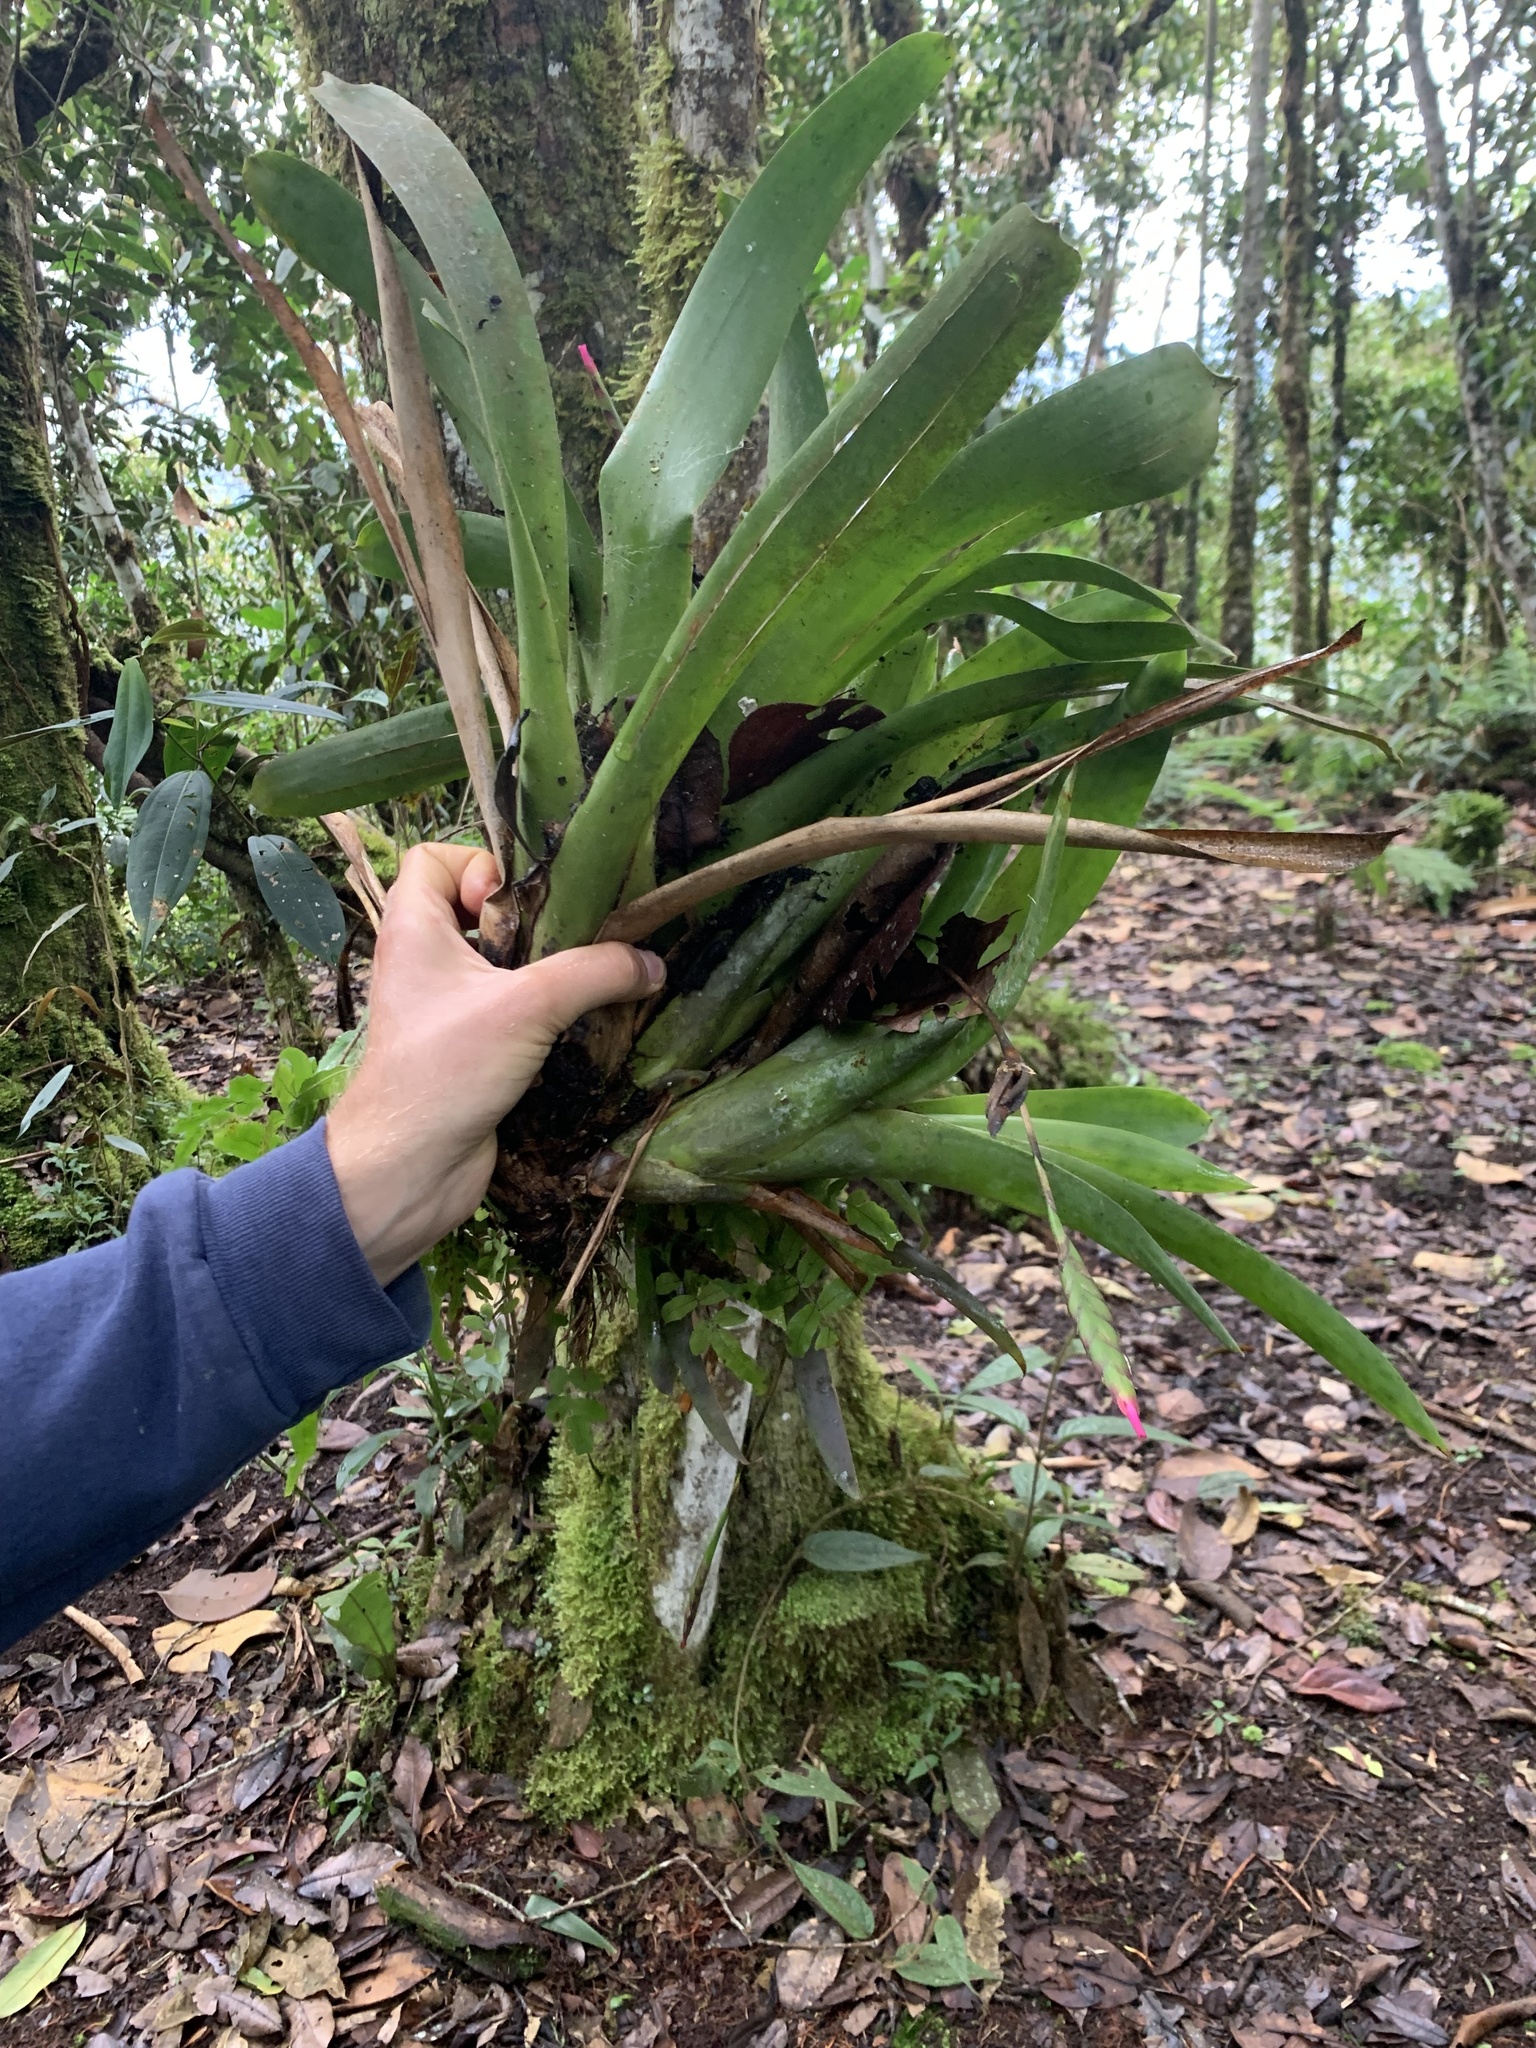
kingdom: Plantae
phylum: Tracheophyta
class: Liliopsida
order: Poales
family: Bromeliaceae
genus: Tillandsia
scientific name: Tillandsia complanata
